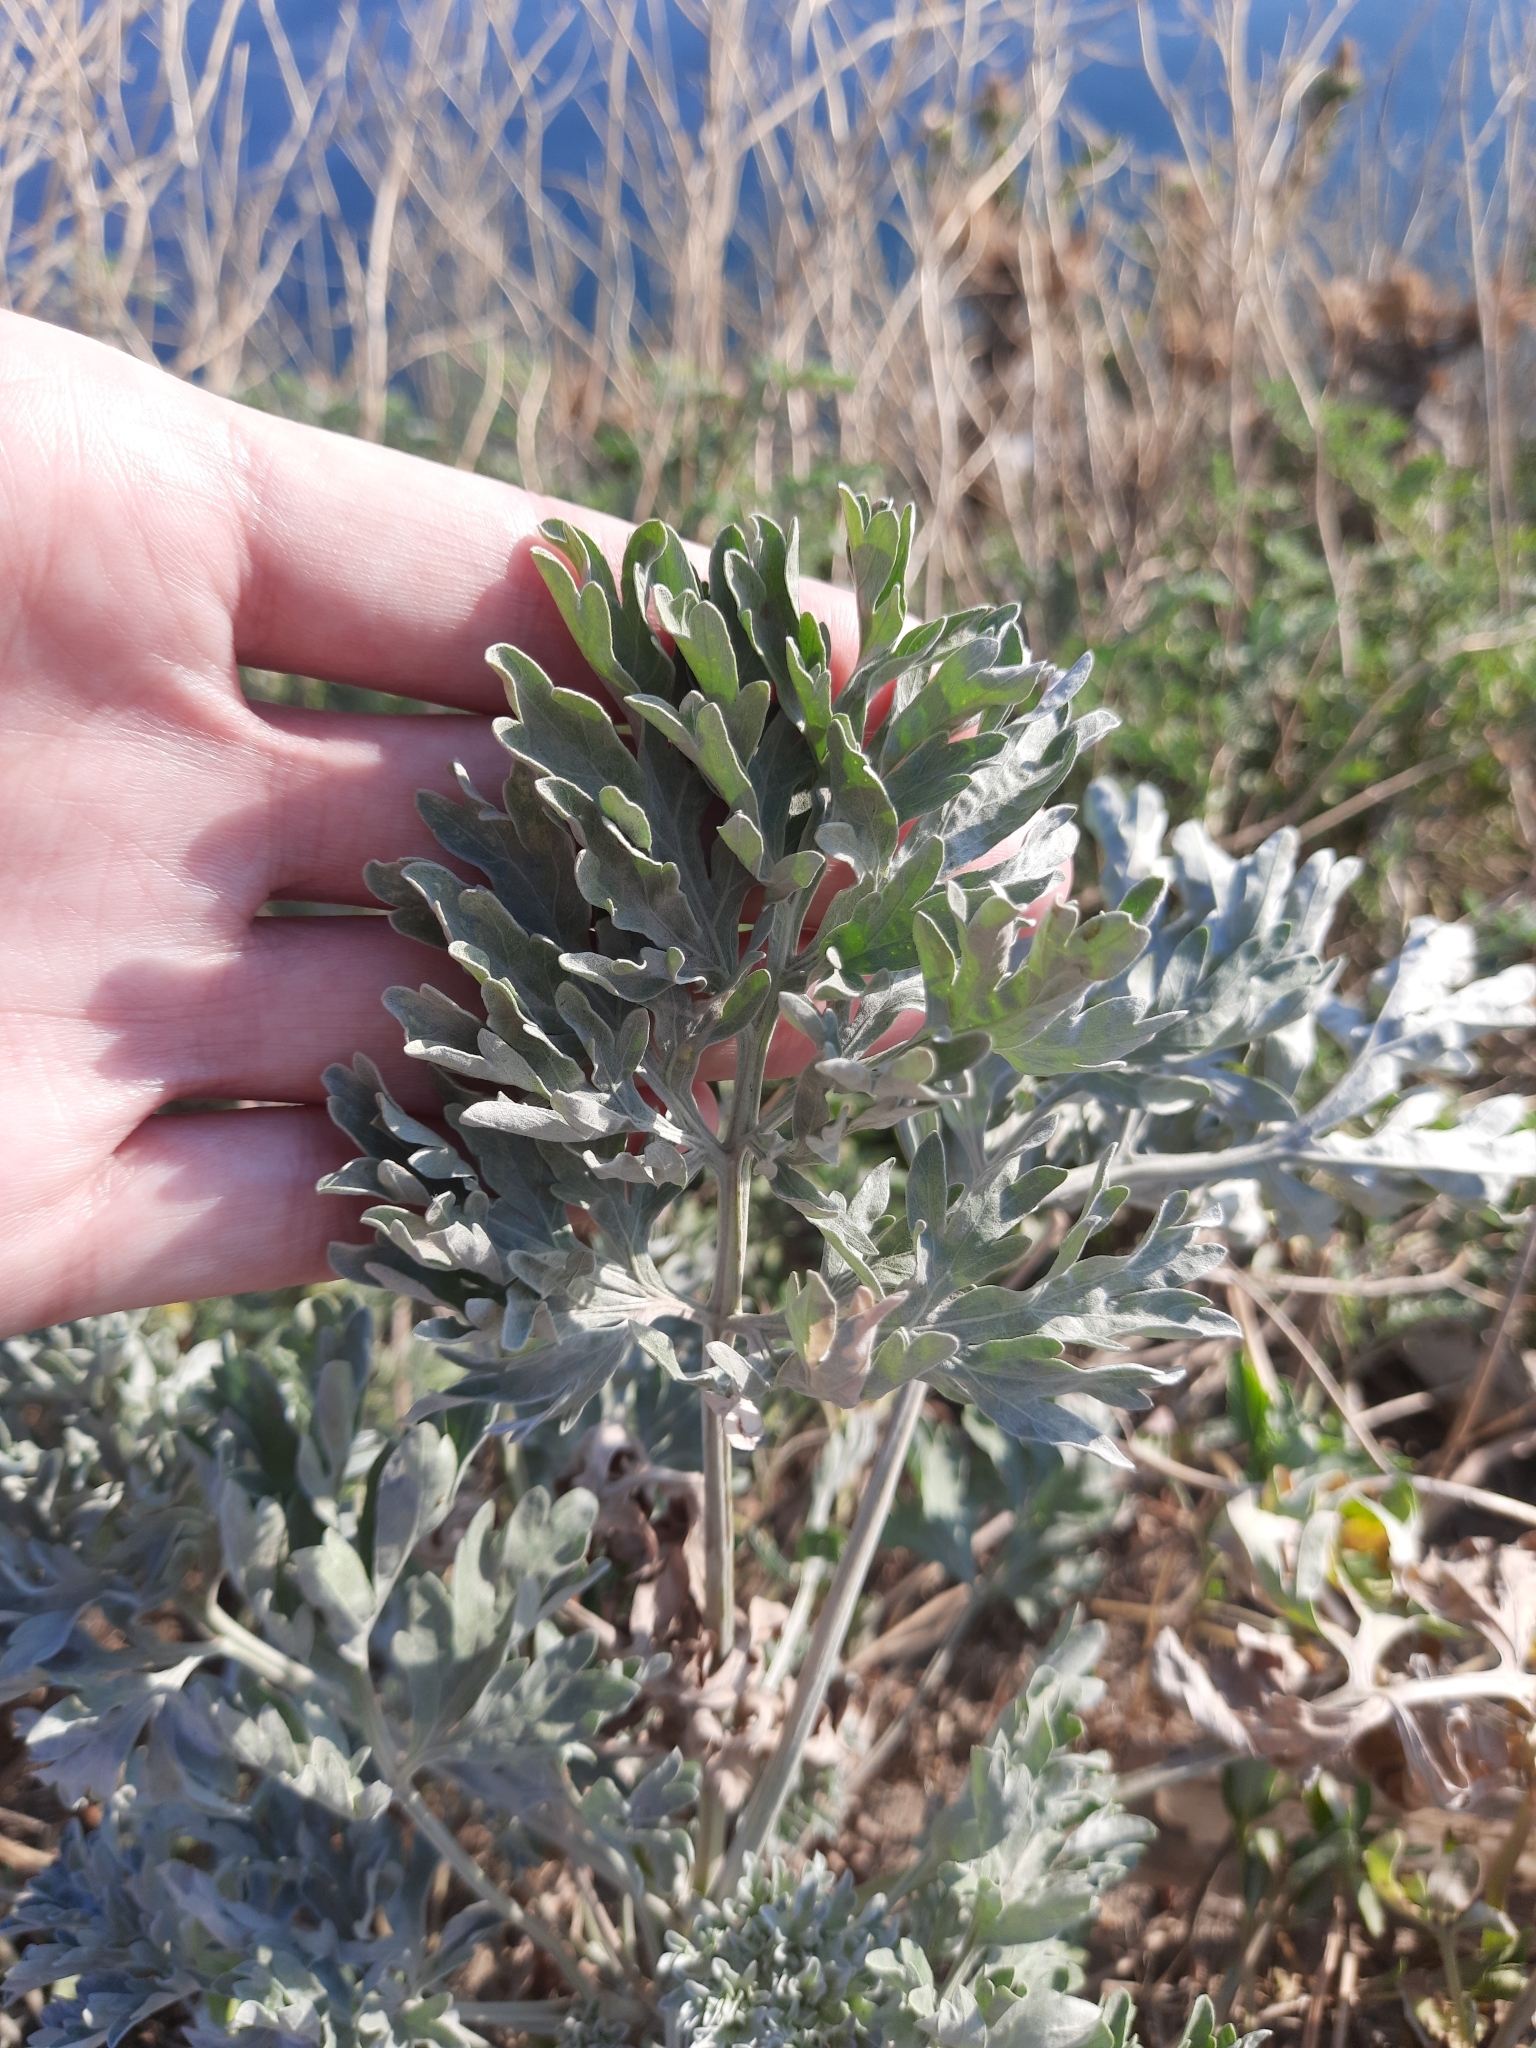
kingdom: Plantae
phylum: Tracheophyta
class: Magnoliopsida
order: Asterales
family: Asteraceae
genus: Artemisia
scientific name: Artemisia absinthium
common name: Wormwood
